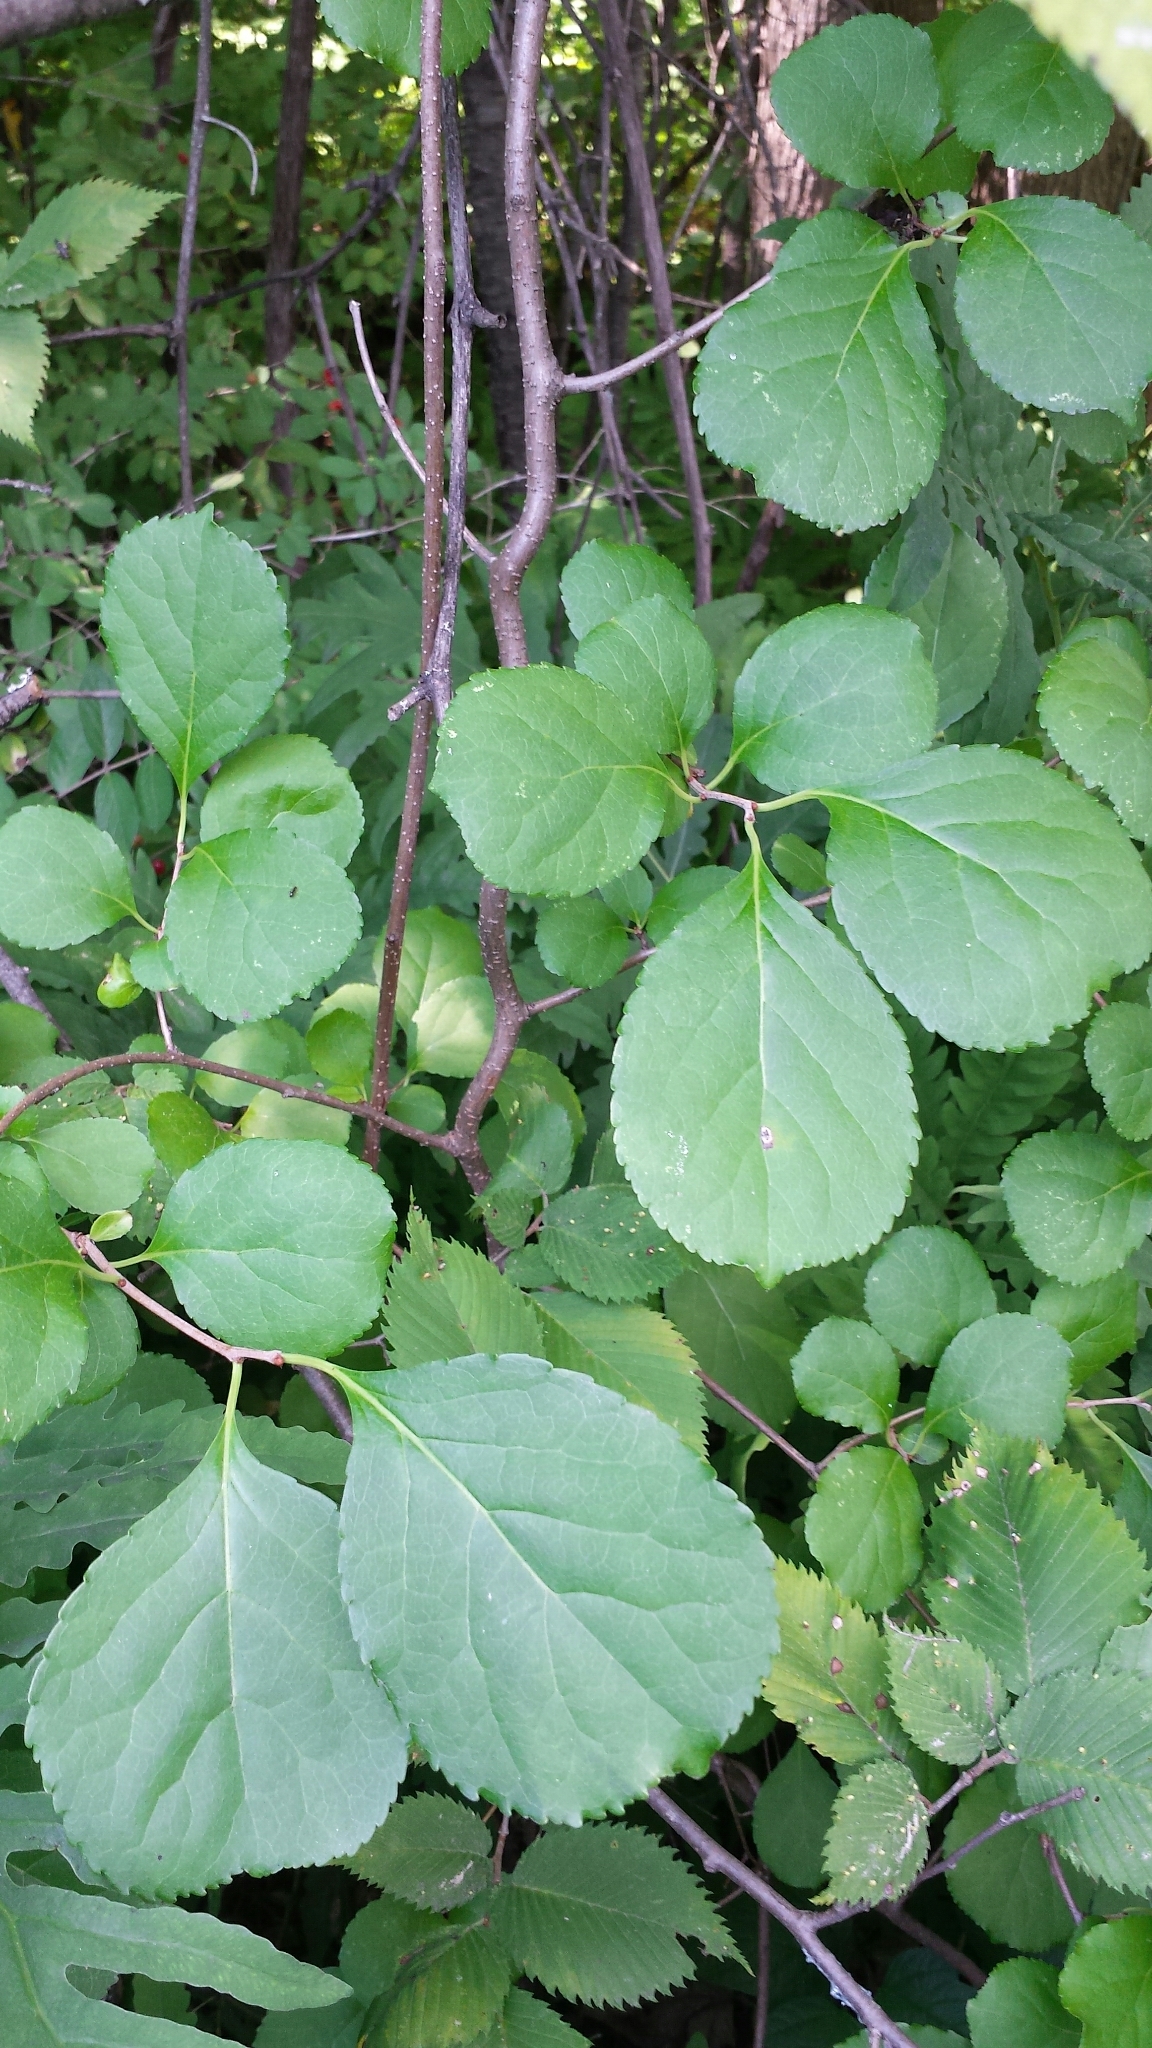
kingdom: Plantae
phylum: Tracheophyta
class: Magnoliopsida
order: Celastrales
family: Celastraceae
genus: Celastrus
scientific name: Celastrus orbiculatus
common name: Oriental bittersweet
